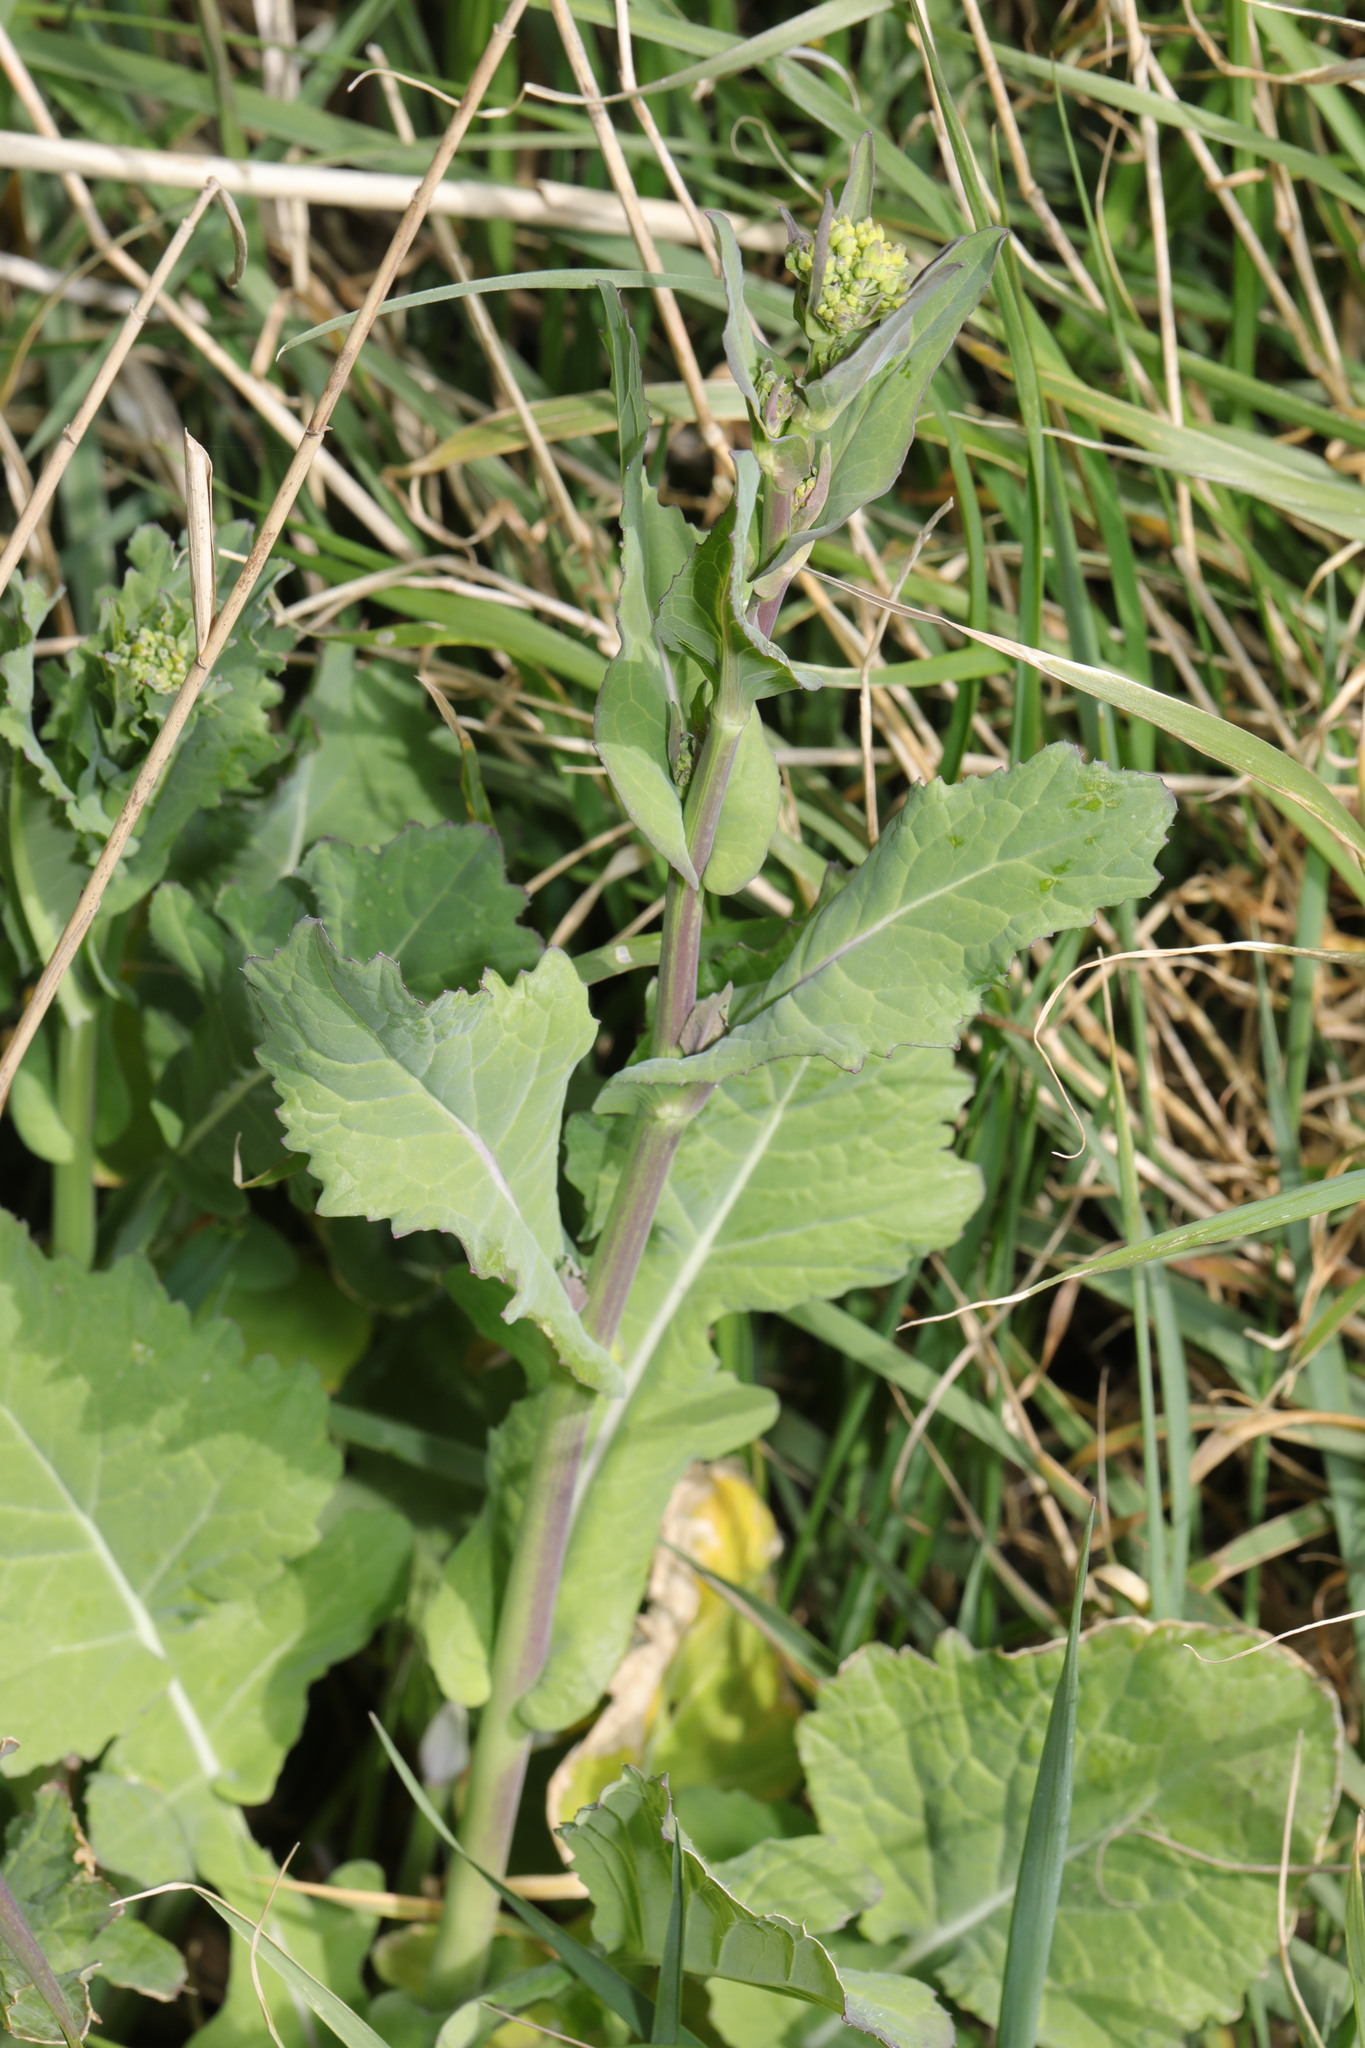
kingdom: Plantae
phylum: Tracheophyta
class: Magnoliopsida
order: Brassicales
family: Brassicaceae
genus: Brassica
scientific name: Brassica rapa
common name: Field mustard
